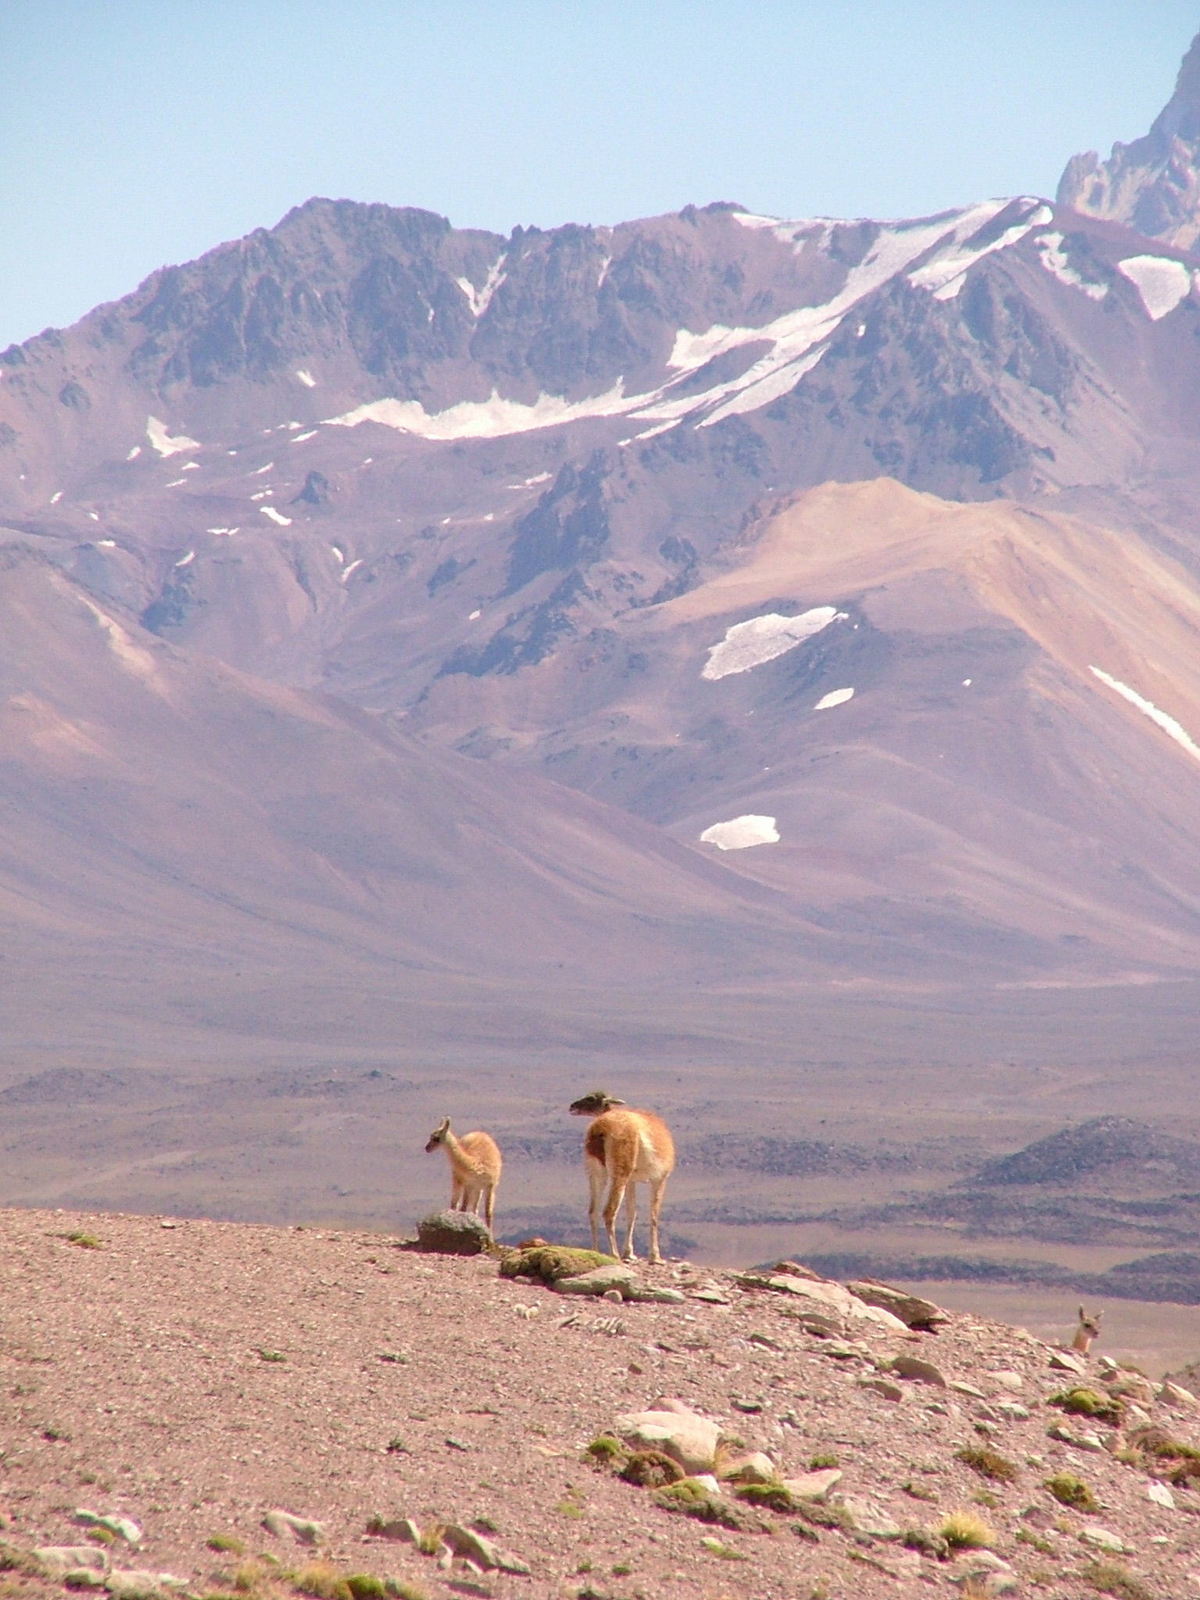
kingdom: Animalia
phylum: Chordata
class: Mammalia
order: Artiodactyla
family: Camelidae
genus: Lama
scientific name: Lama glama
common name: Llama
